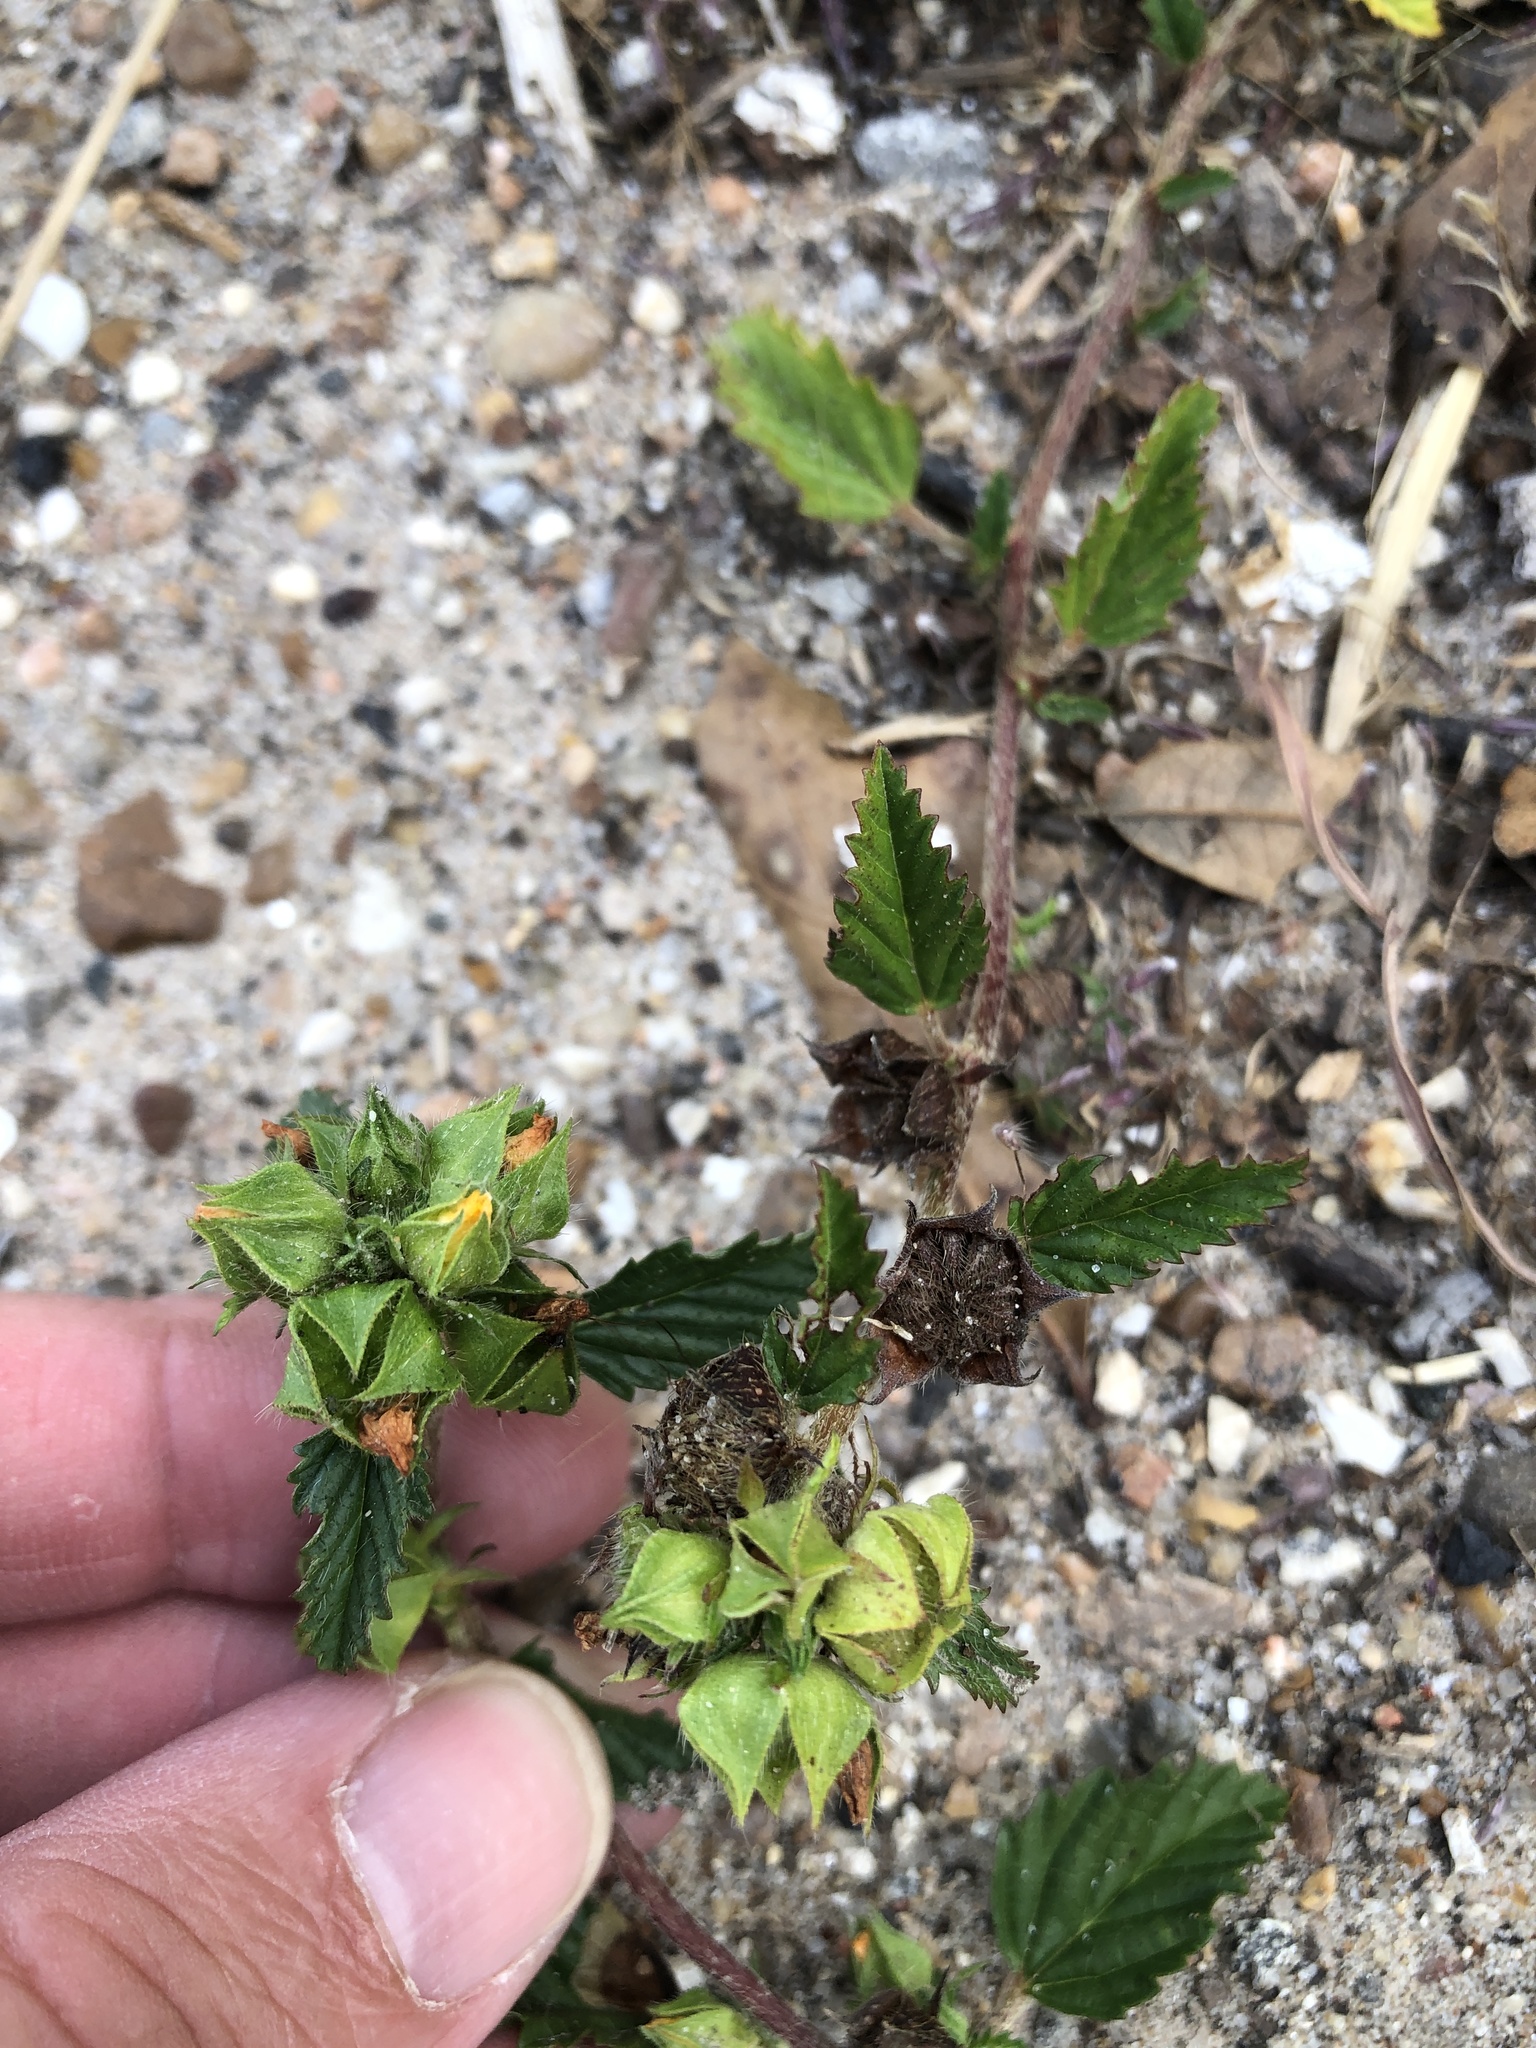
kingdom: Plantae
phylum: Tracheophyta
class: Magnoliopsida
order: Malvales
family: Malvaceae
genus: Malvastrum
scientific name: Malvastrum coromandelianum
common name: Threelobe false mallow
